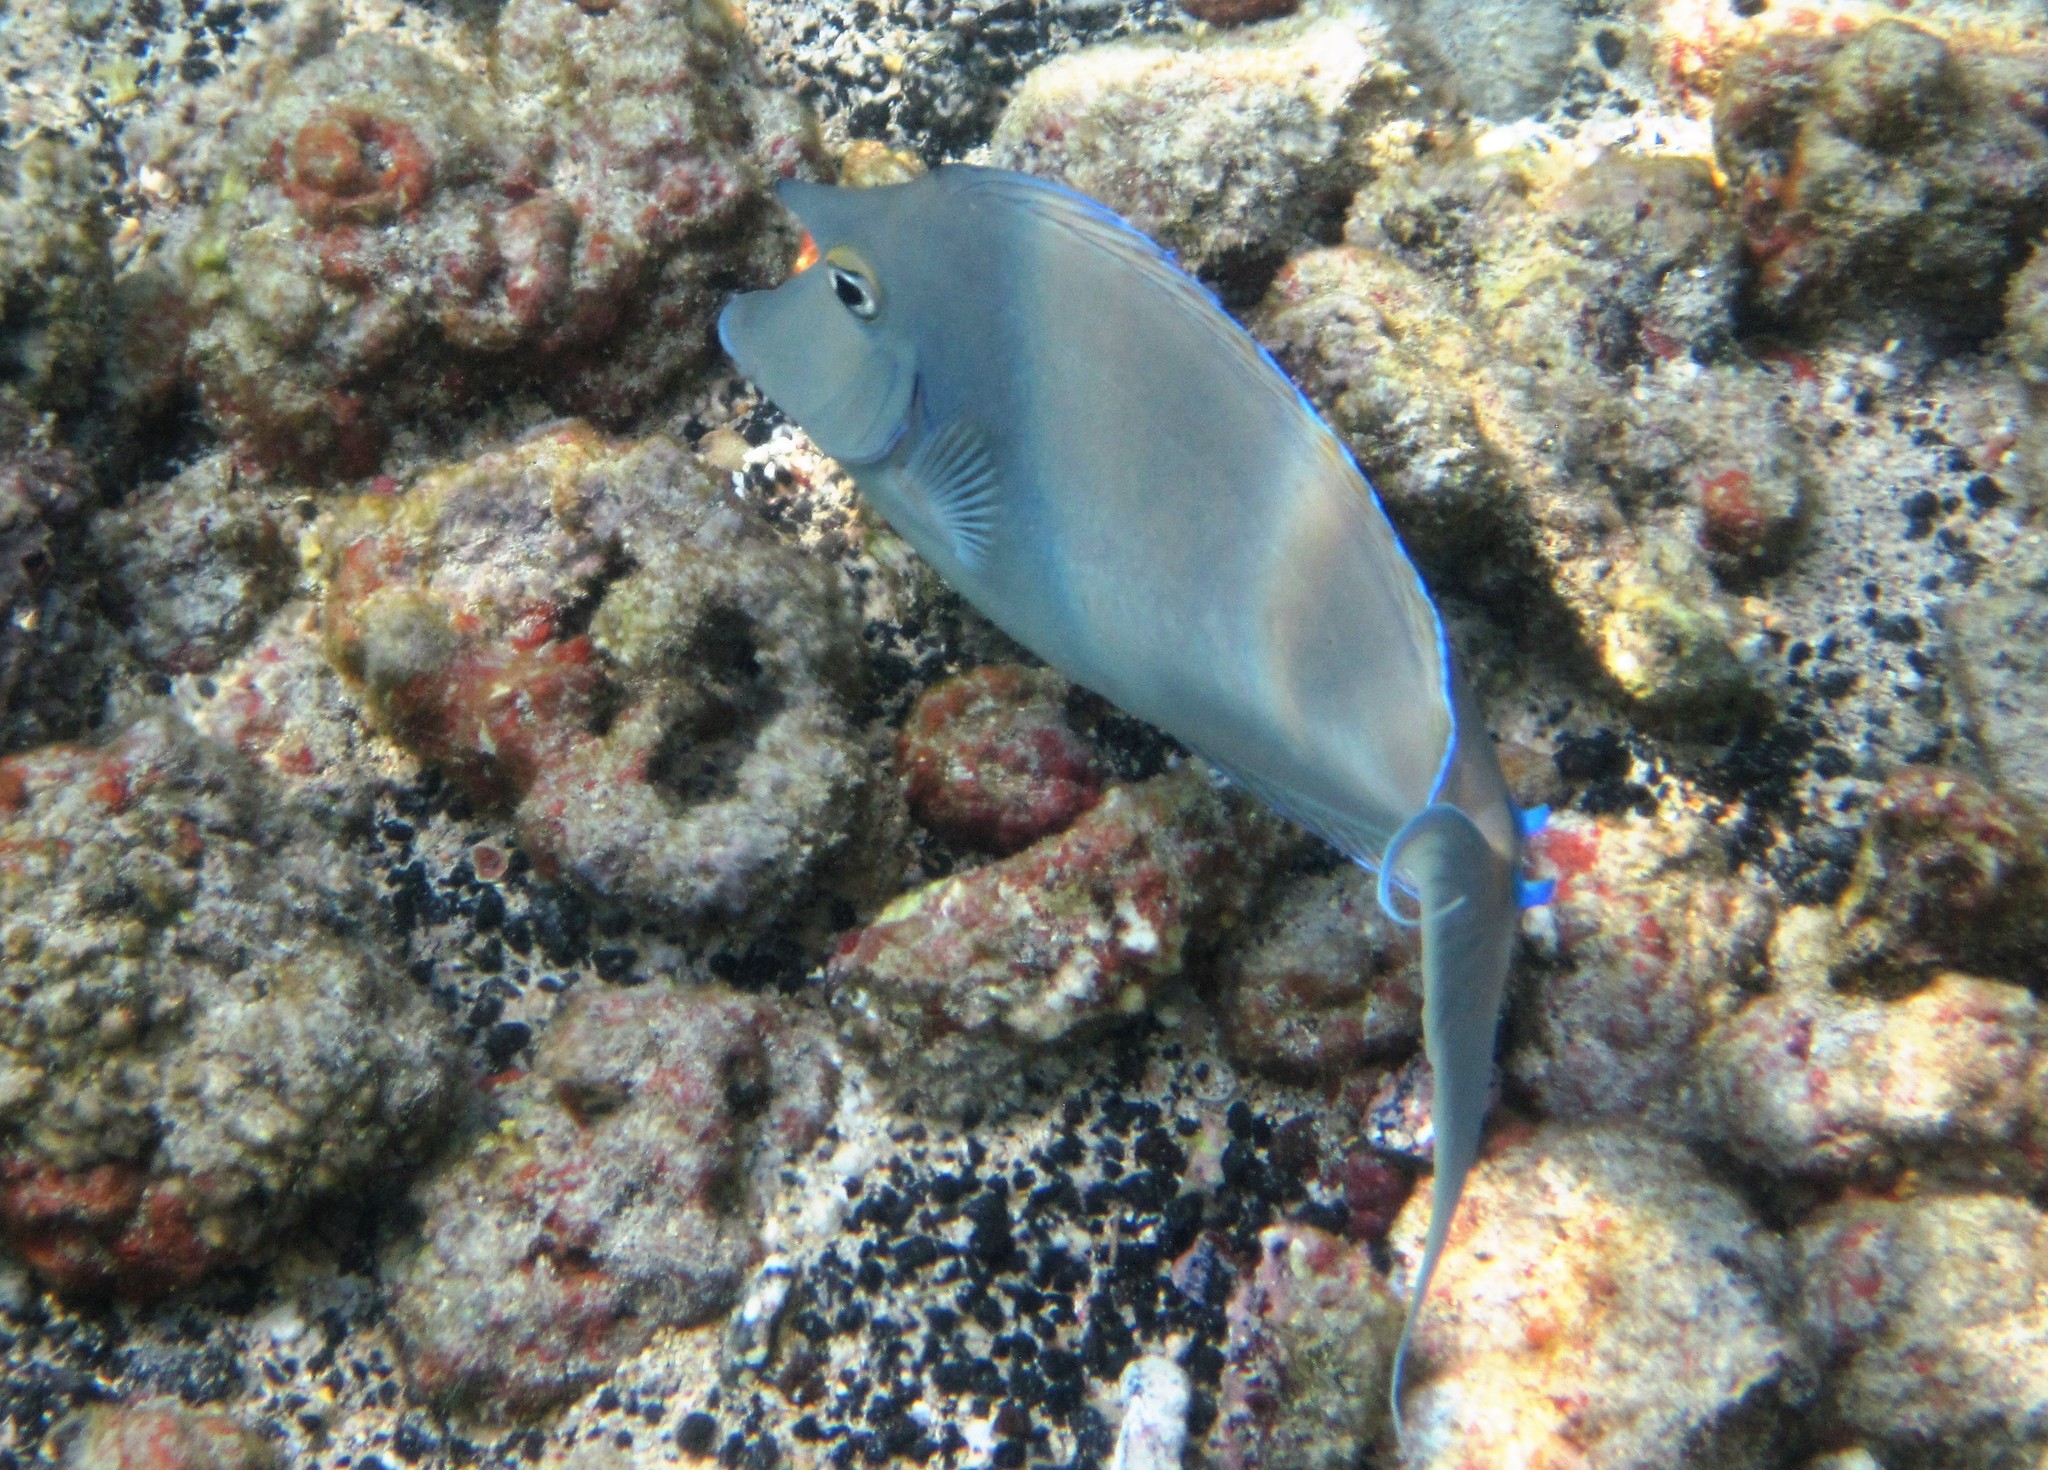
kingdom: Animalia
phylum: Chordata
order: Perciformes
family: Acanthuridae
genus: Naso
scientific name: Naso unicornis
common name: Bluespine unicornfish
